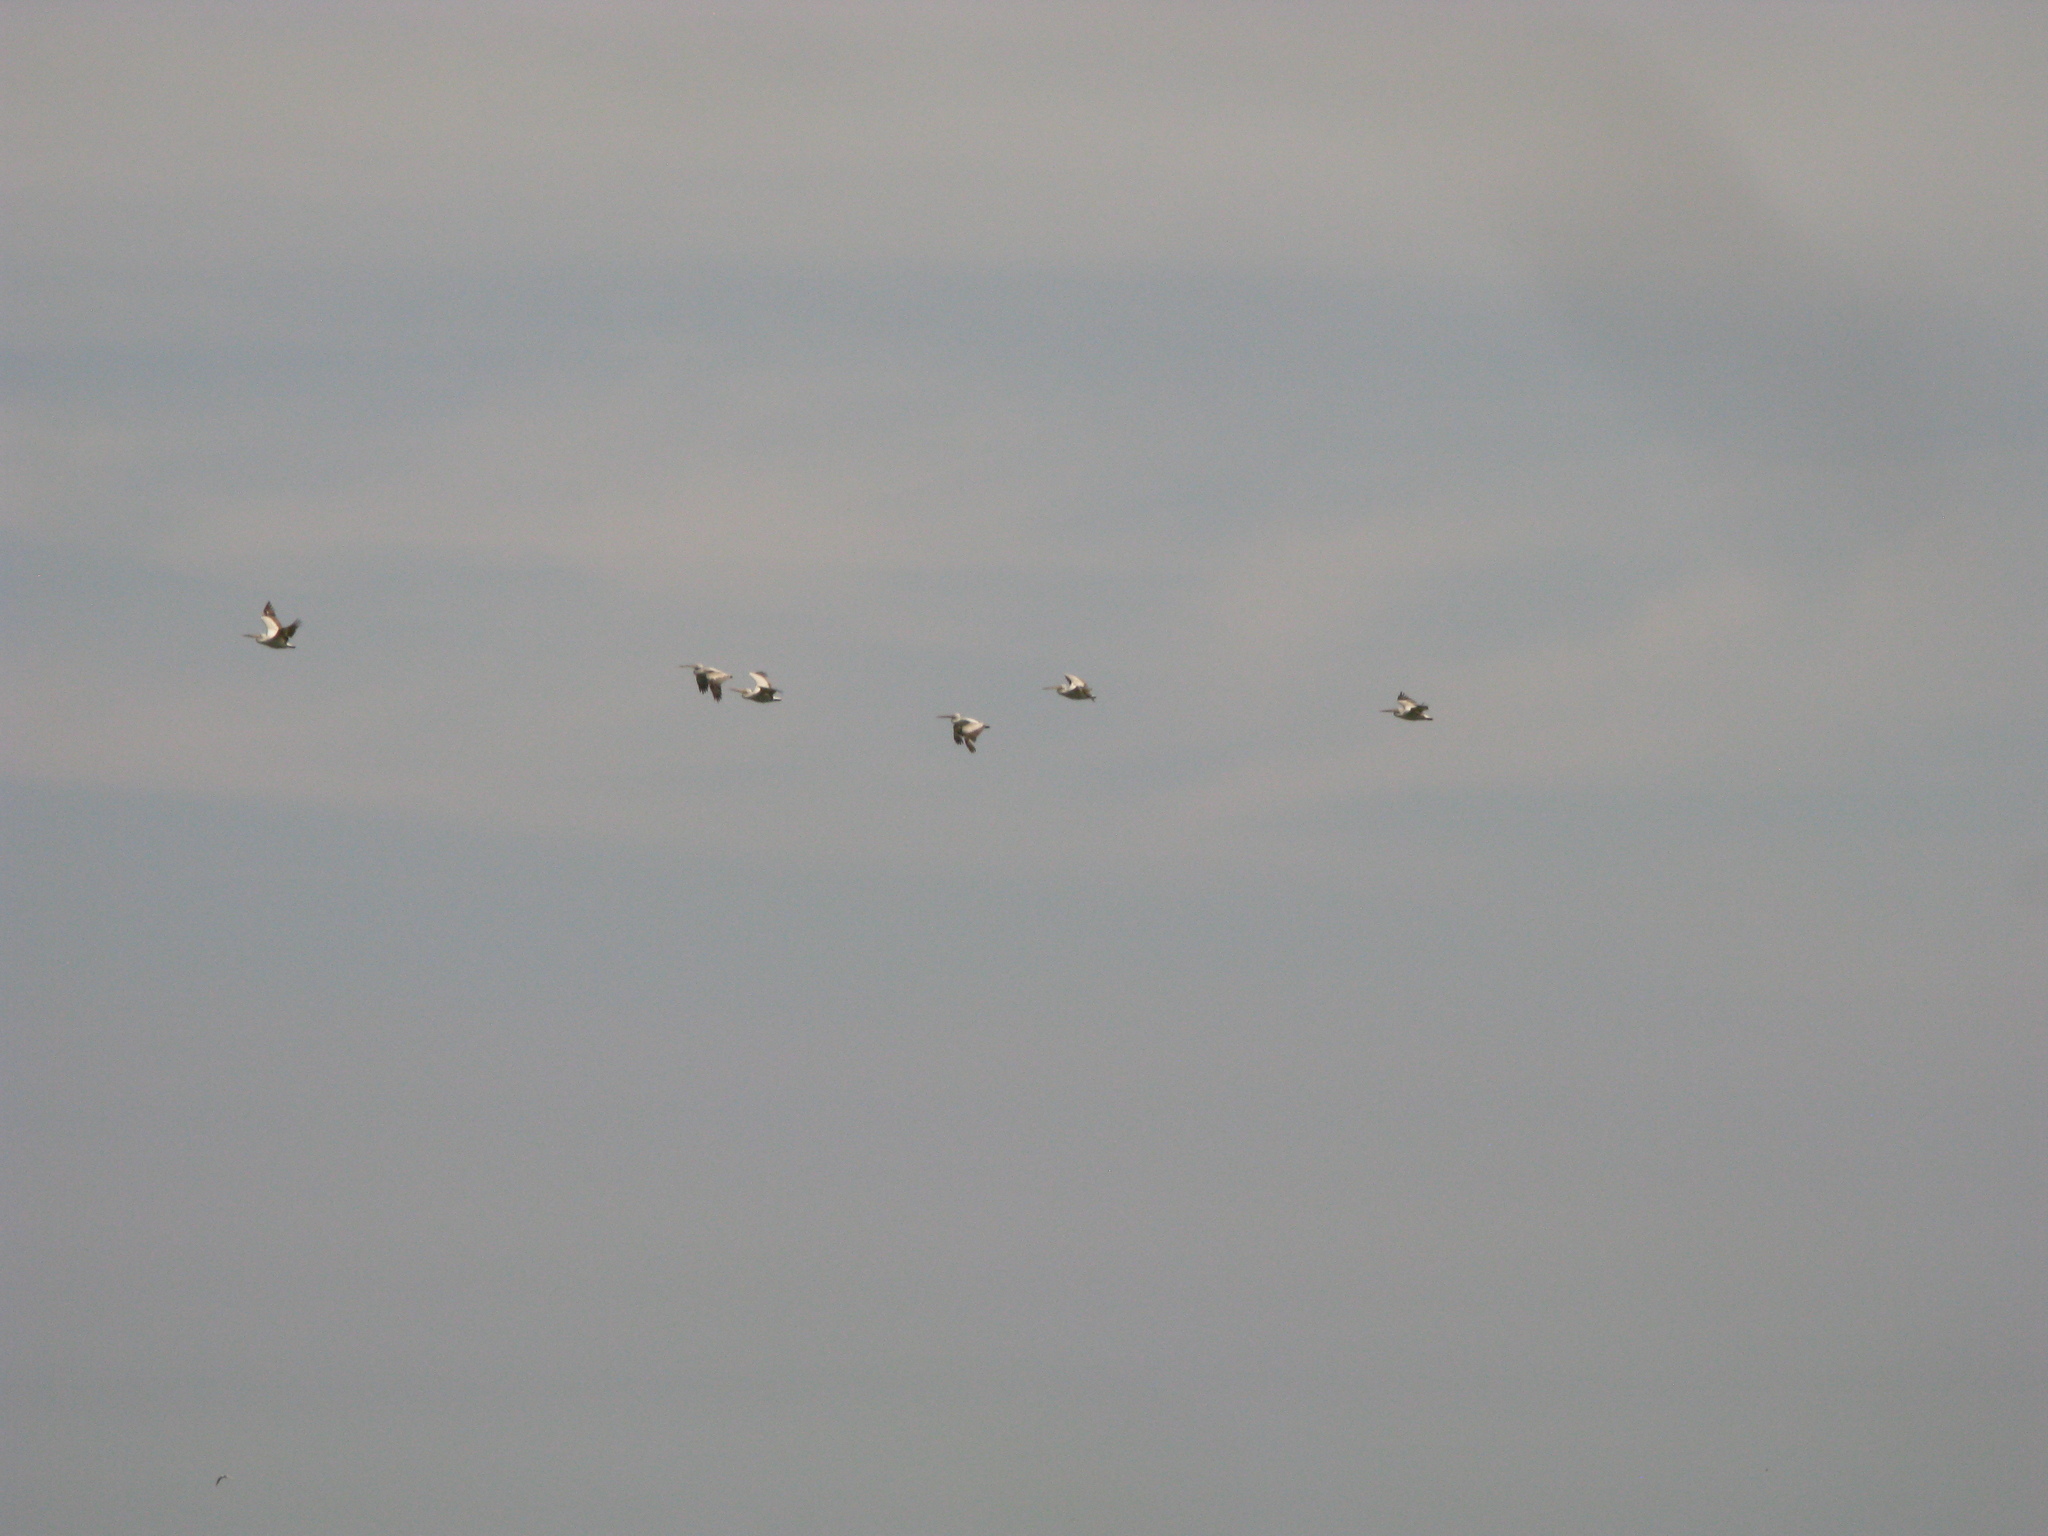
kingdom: Animalia
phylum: Chordata
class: Aves
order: Pelecaniformes
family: Pelecanidae
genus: Pelecanus
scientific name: Pelecanus onocrotalus
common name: Great white pelican
